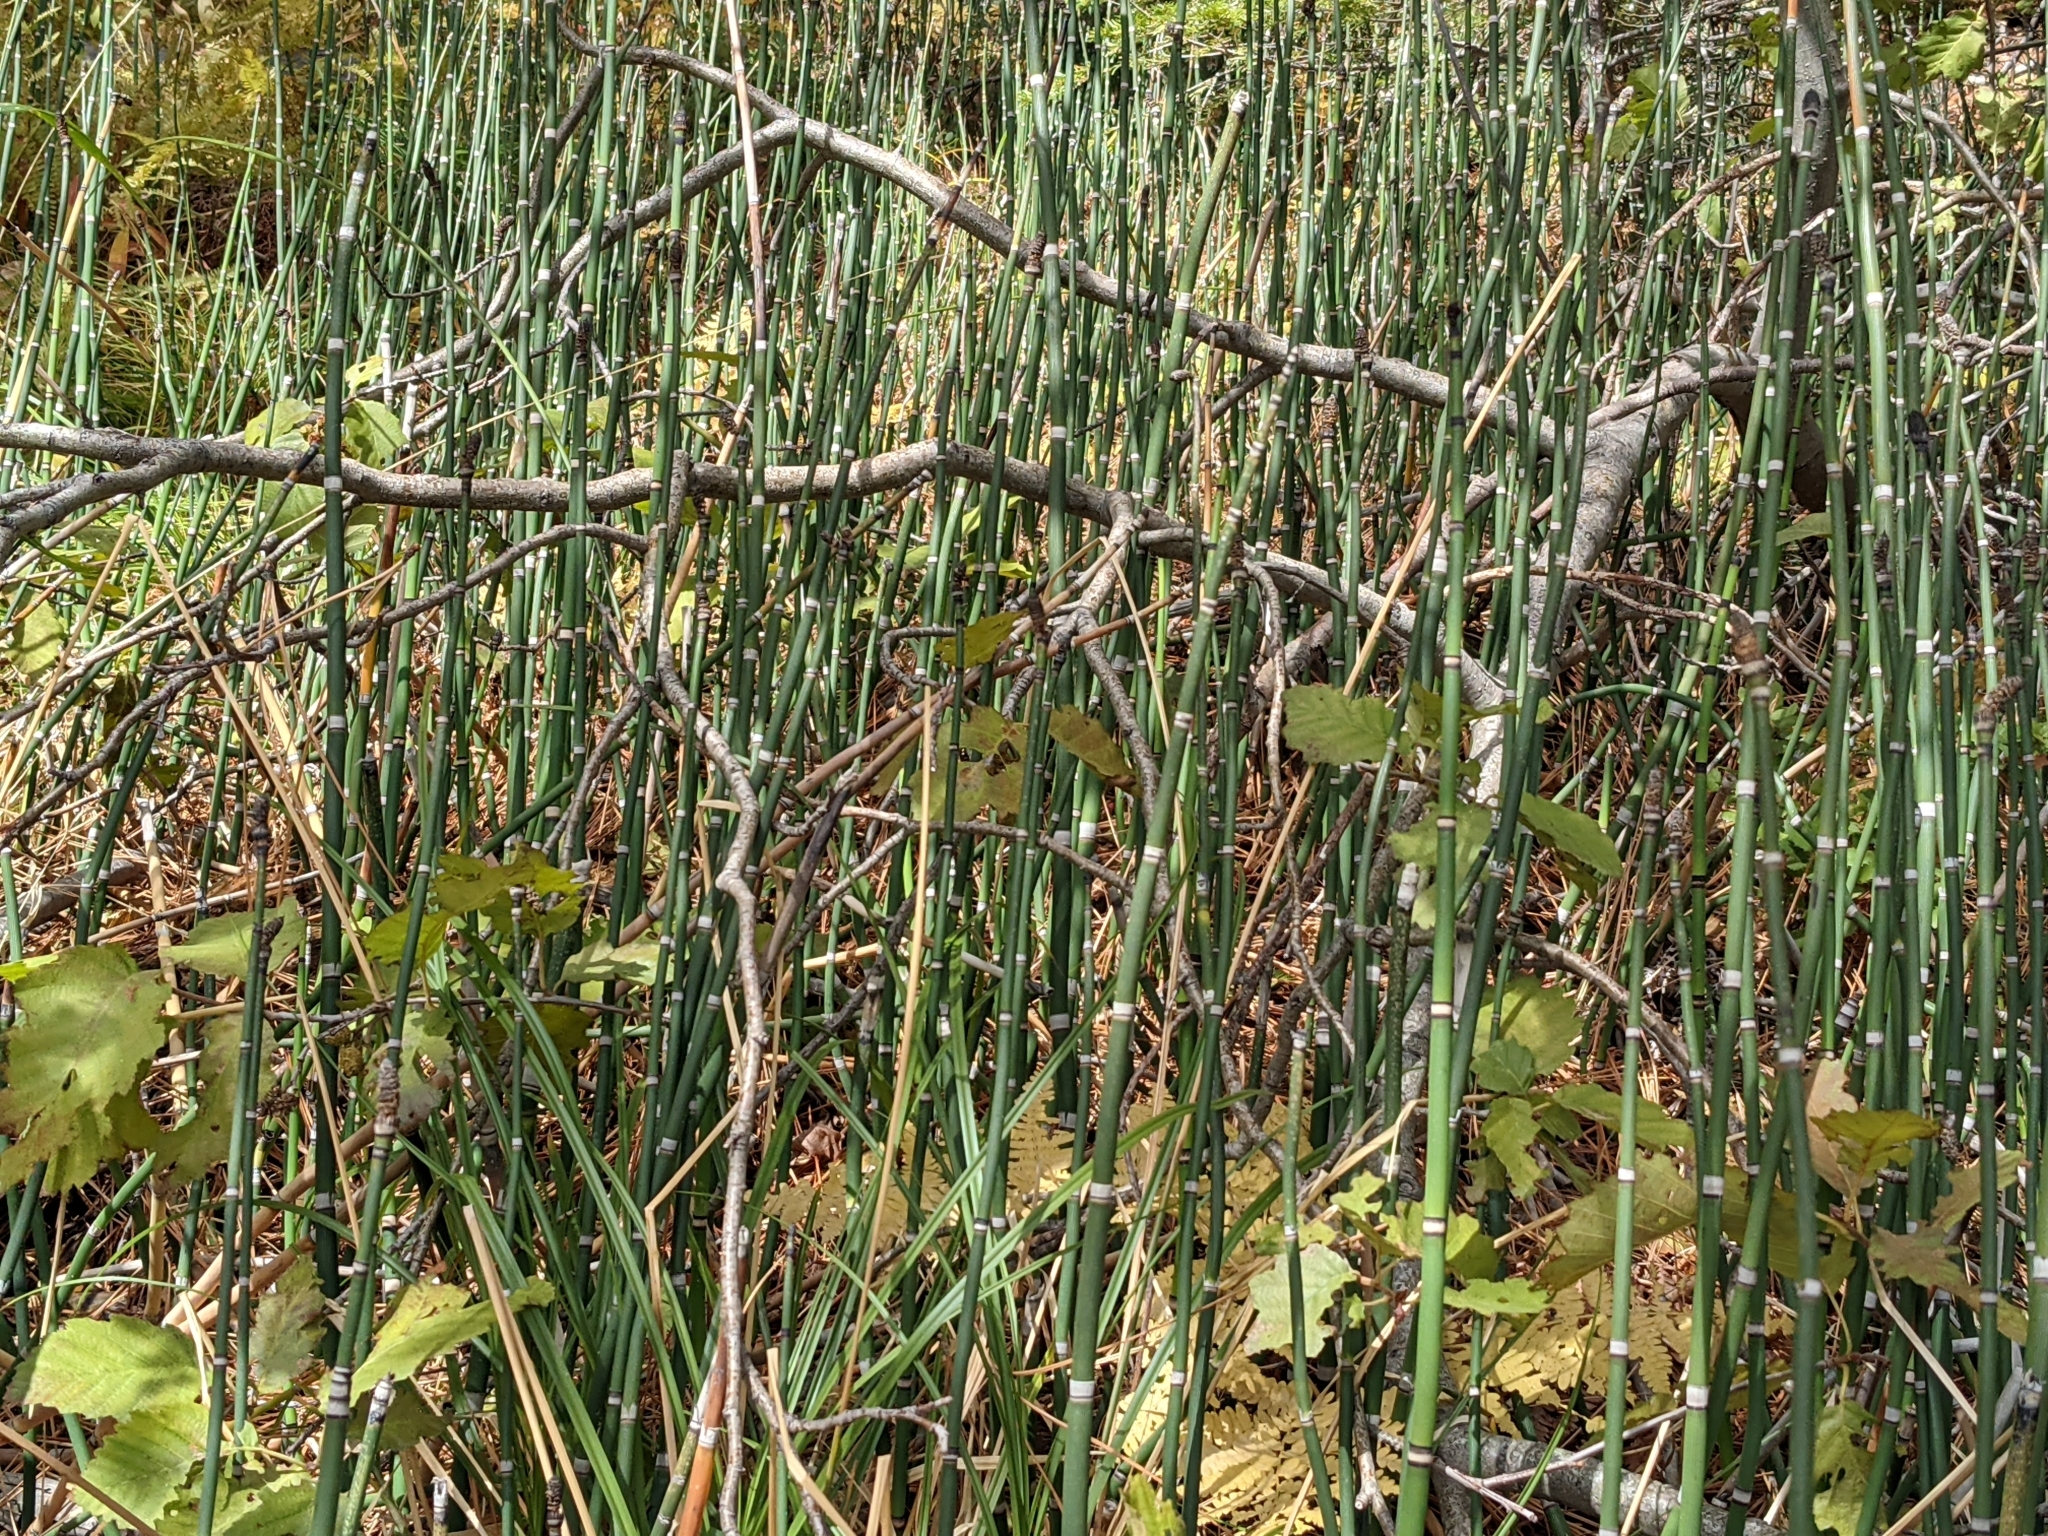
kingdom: Plantae
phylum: Tracheophyta
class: Polypodiopsida
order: Equisetales
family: Equisetaceae
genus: Equisetum
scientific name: Equisetum praealtum
